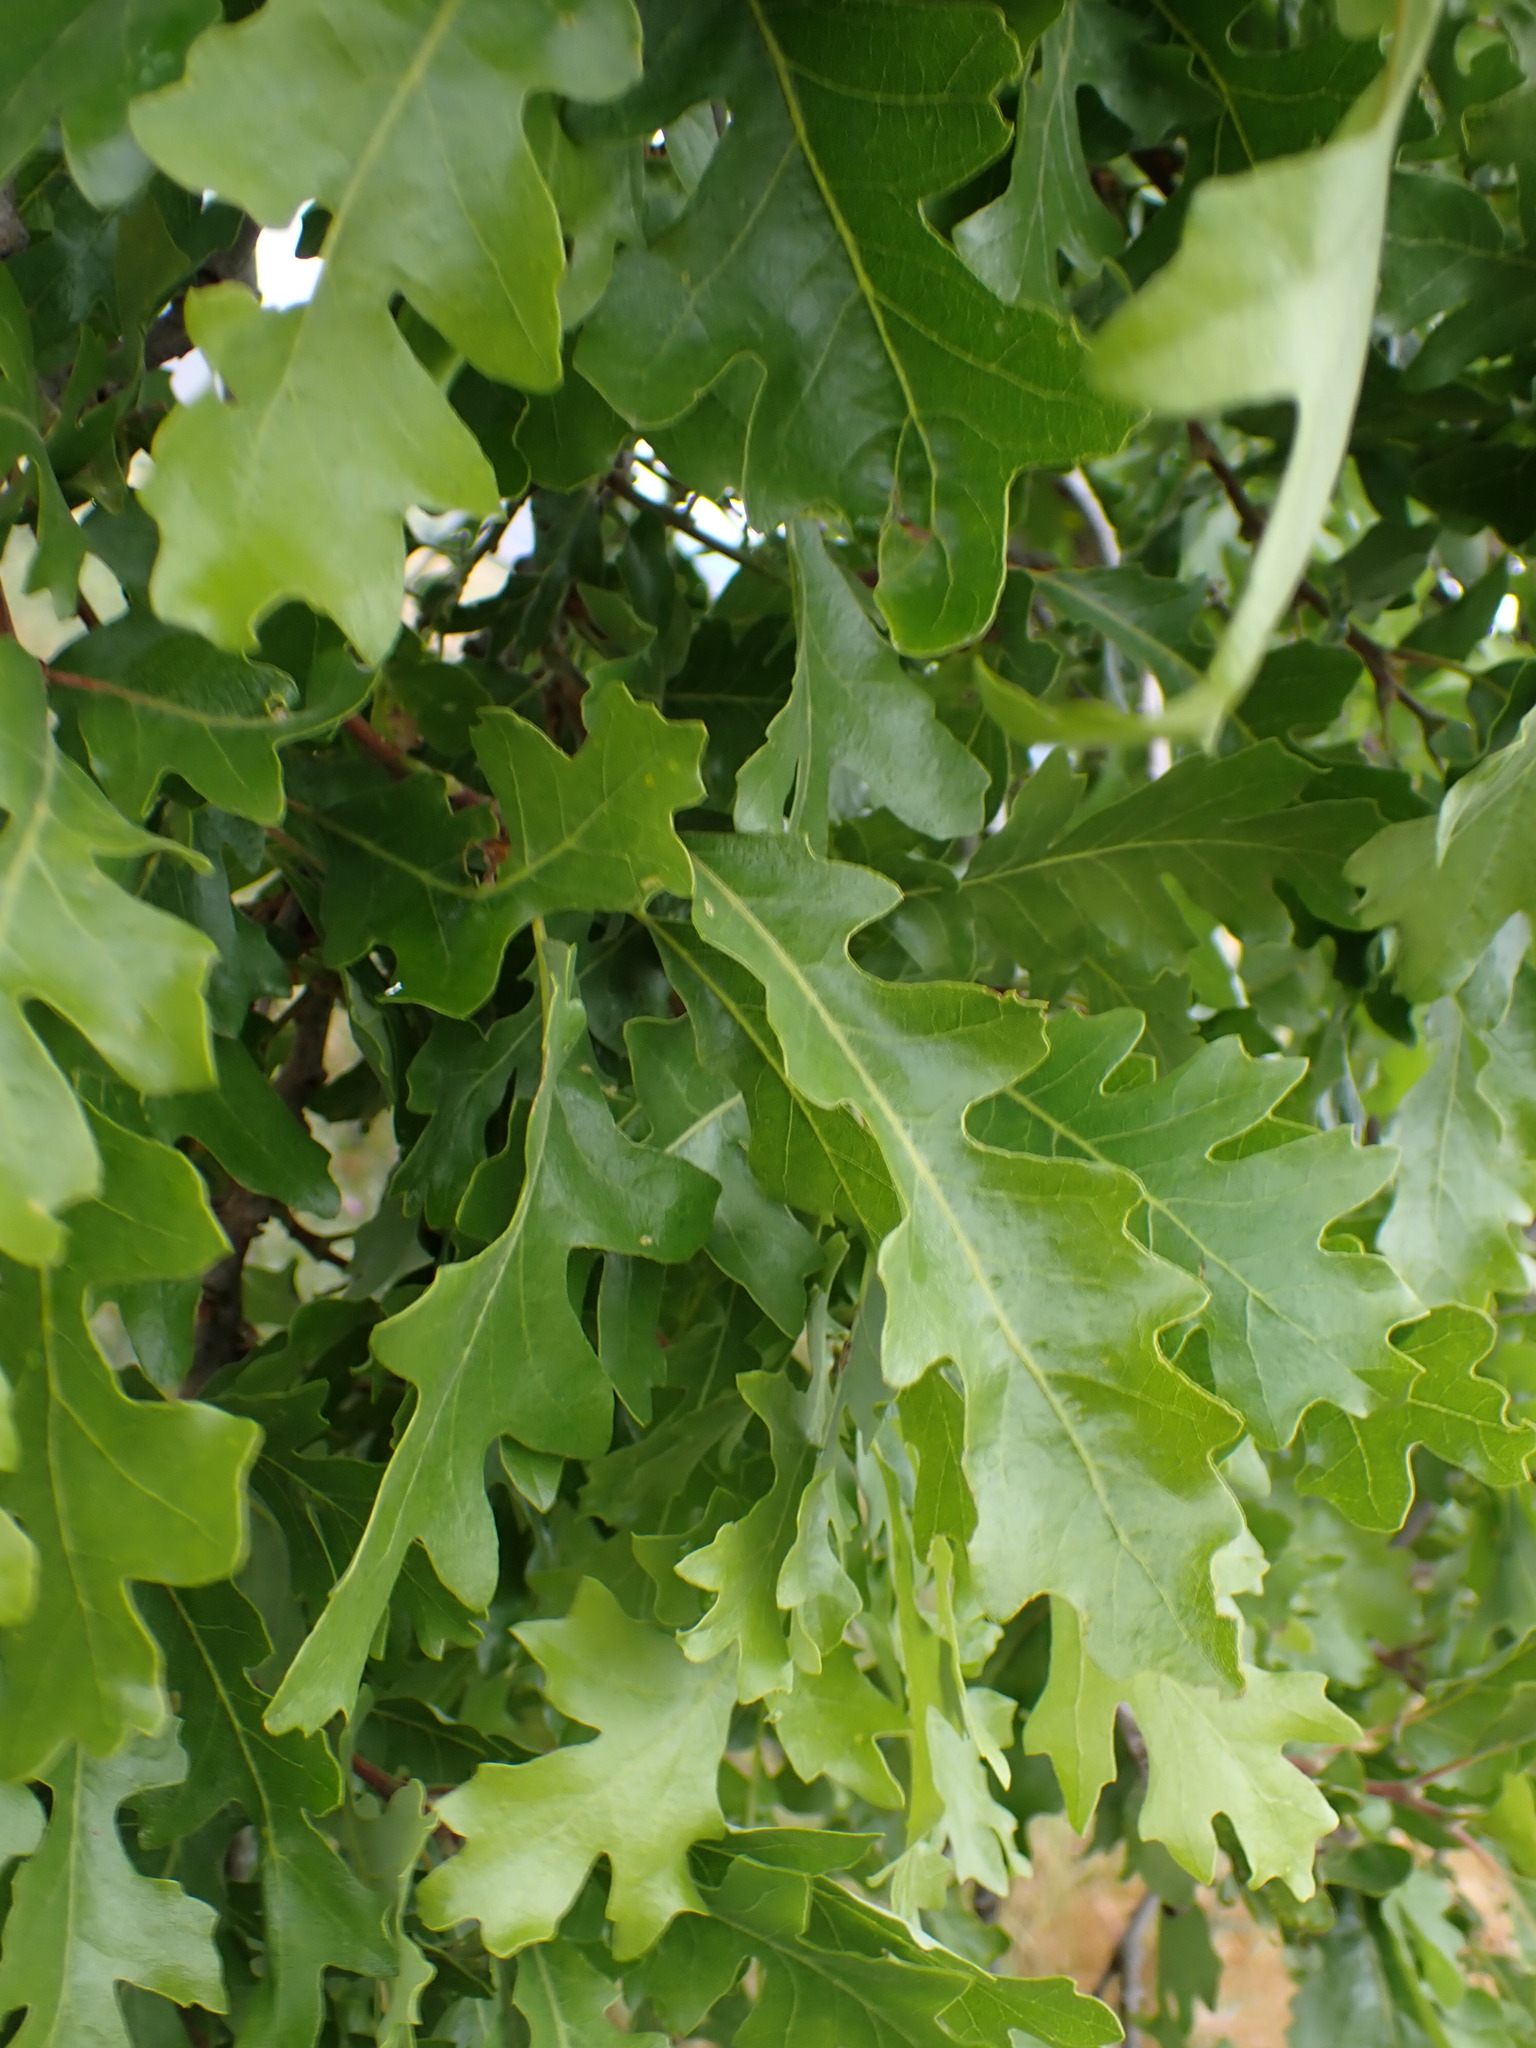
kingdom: Plantae
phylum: Tracheophyta
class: Magnoliopsida
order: Fagales
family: Fagaceae
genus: Quercus
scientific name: Quercus lobata
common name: Valley oak
